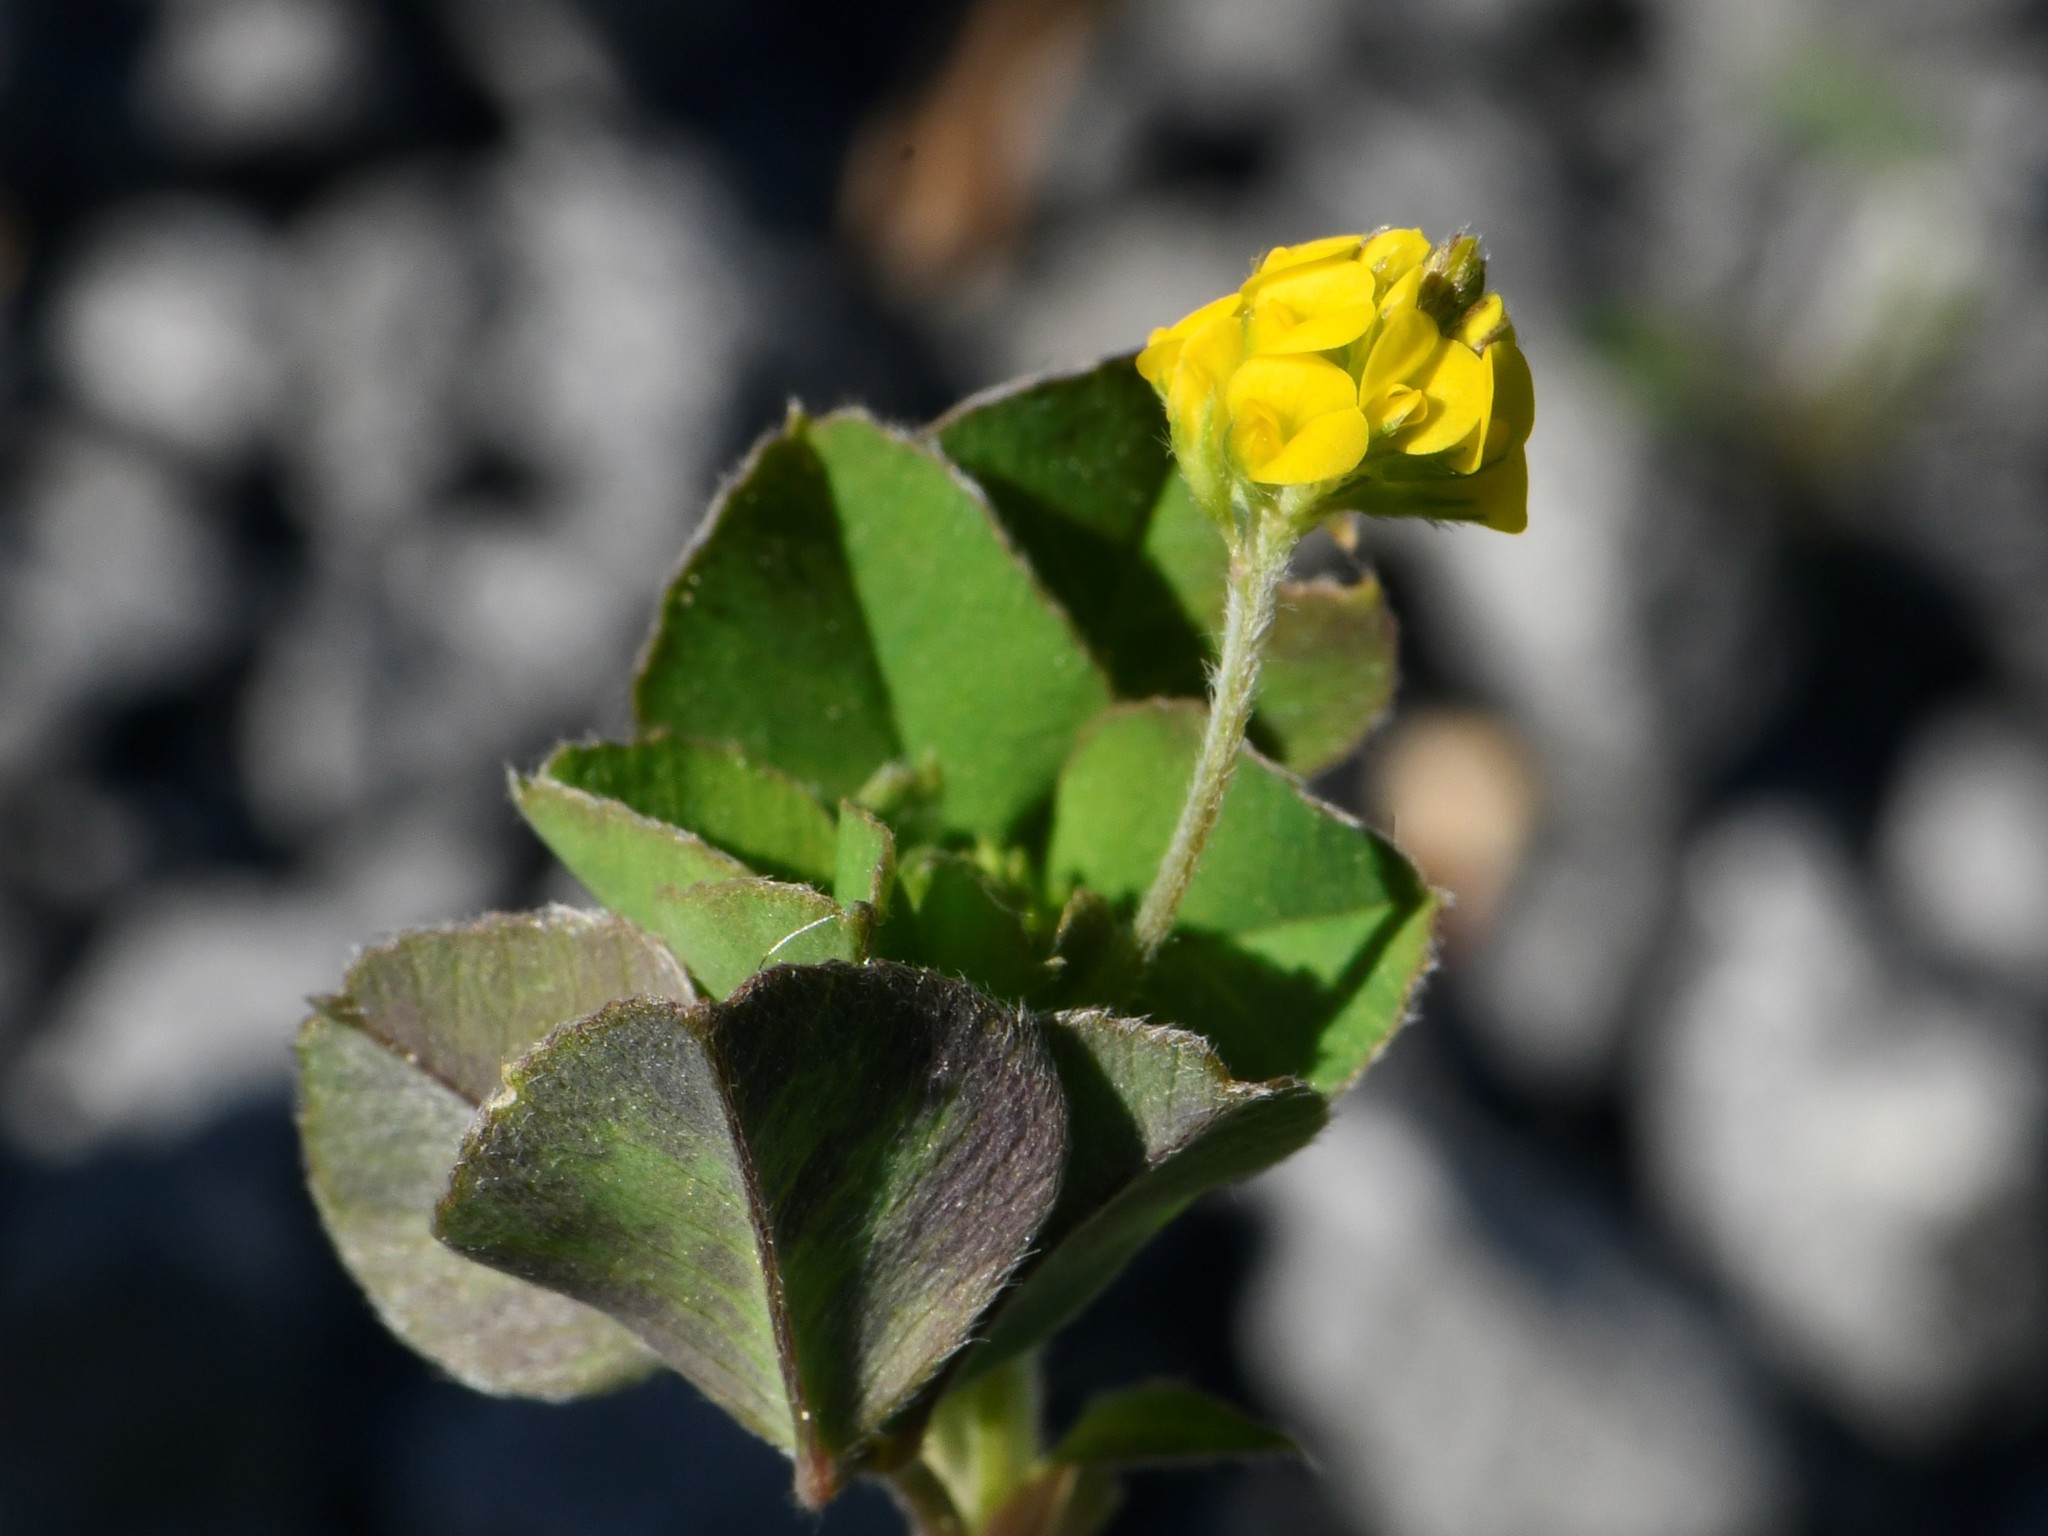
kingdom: Plantae
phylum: Tracheophyta
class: Magnoliopsida
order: Fabales
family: Fabaceae
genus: Medicago
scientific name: Medicago lupulina
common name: Black medick
